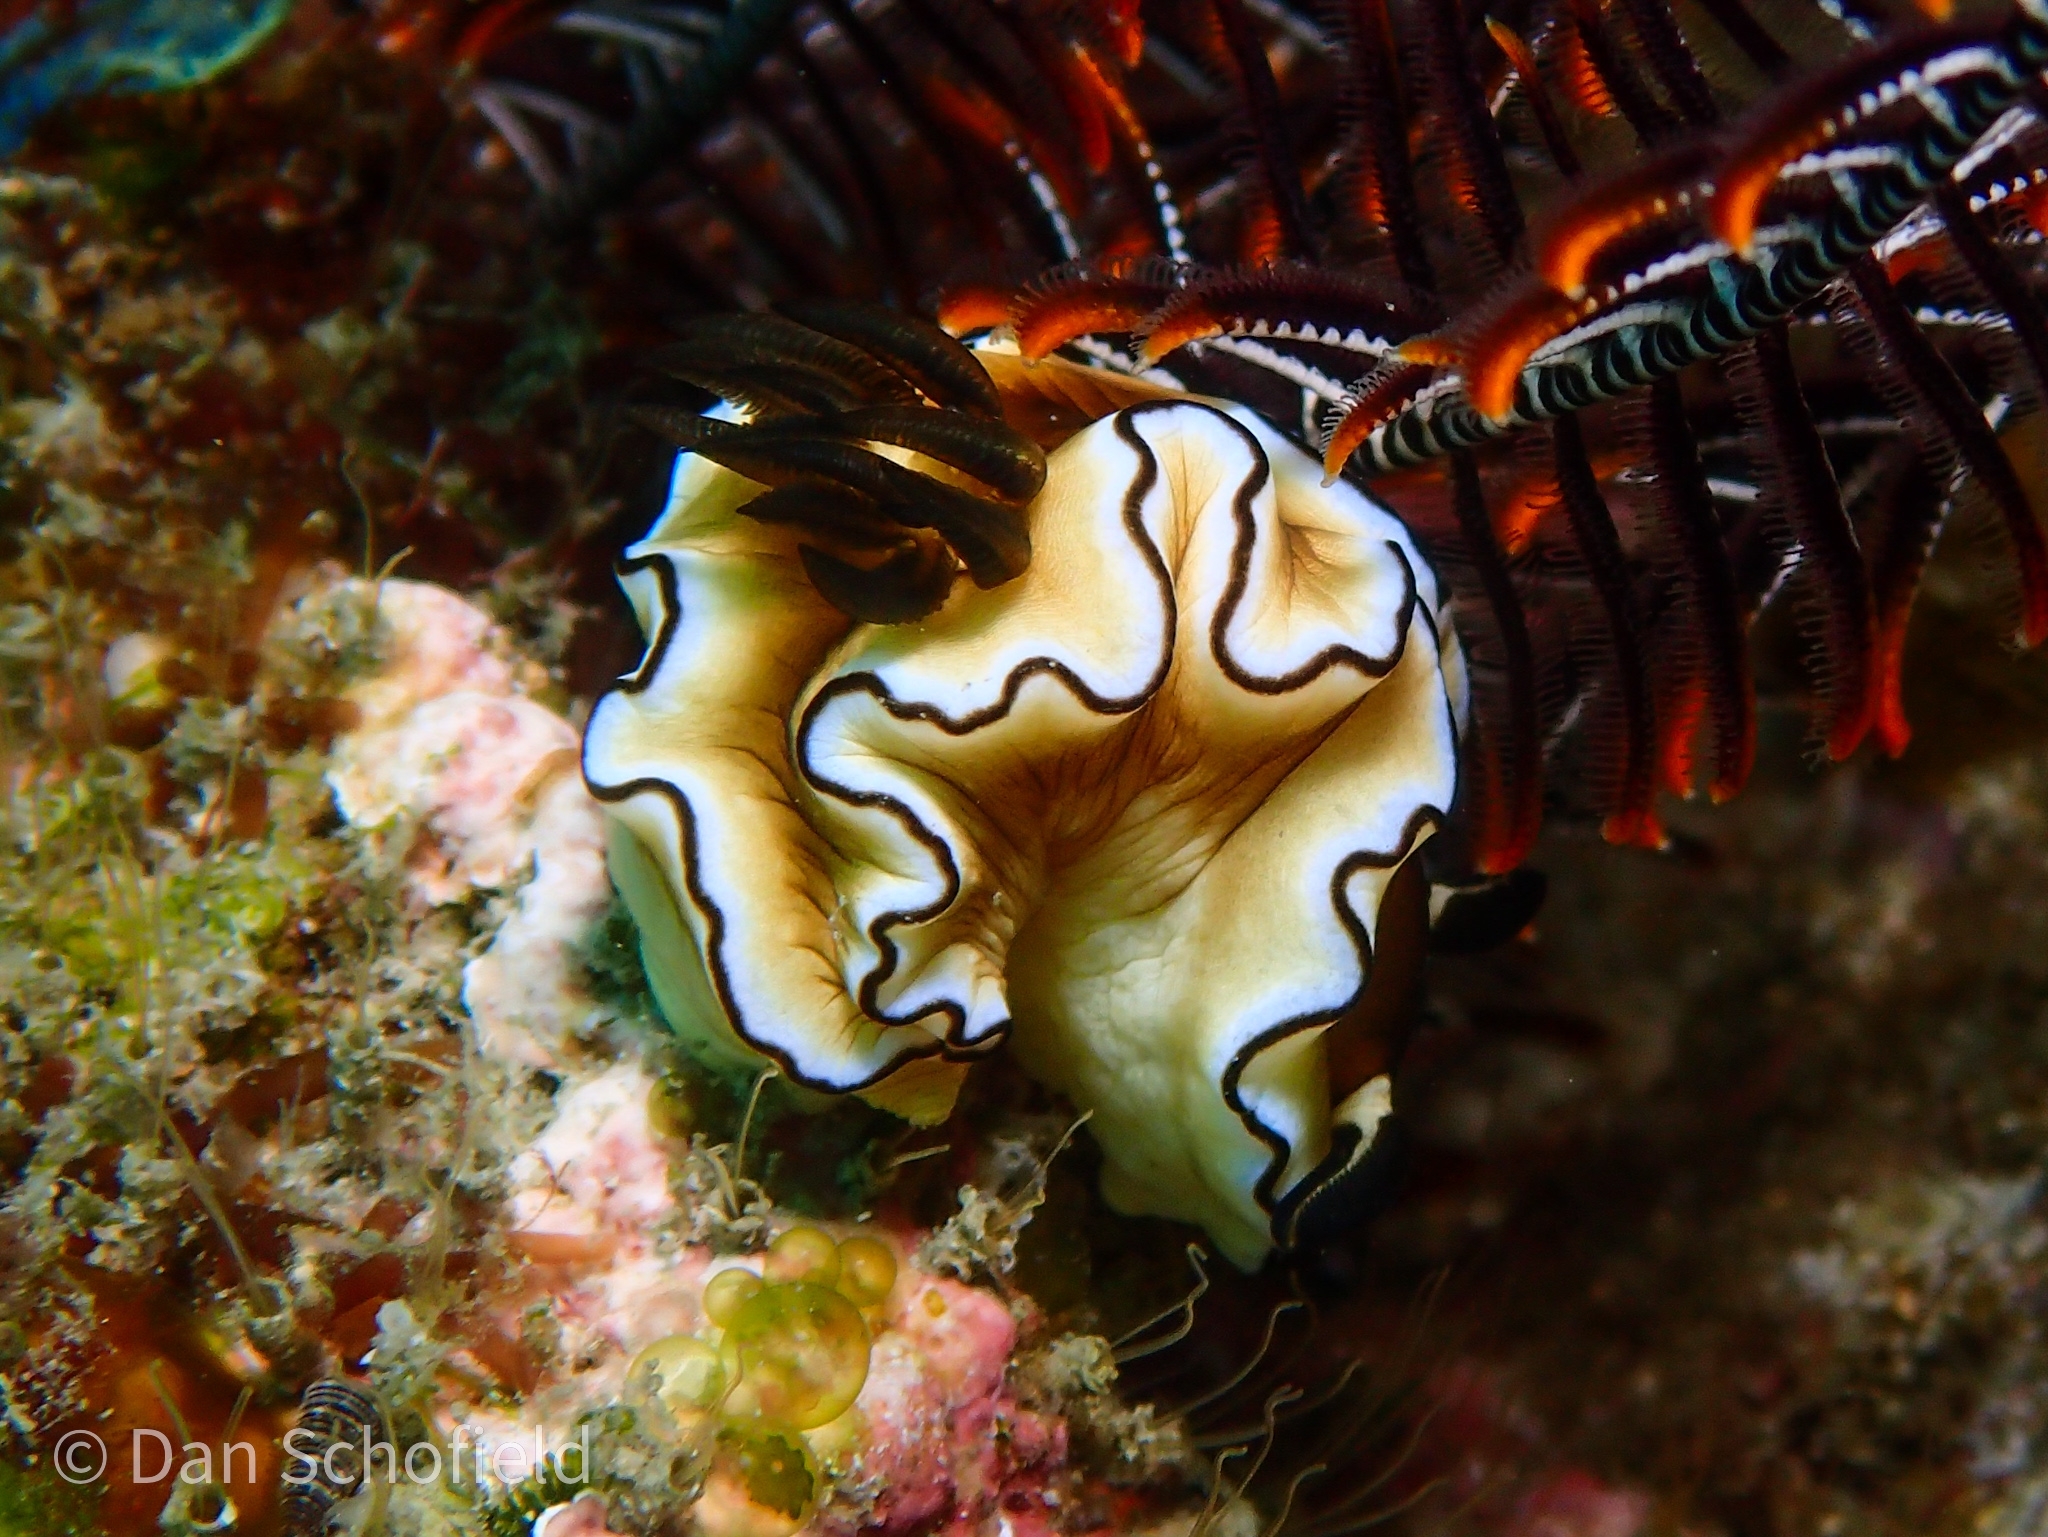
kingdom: Animalia
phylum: Mollusca
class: Gastropoda
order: Nudibranchia
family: Chromodorididae
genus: Doriprismatica
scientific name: Doriprismatica atromarginata
